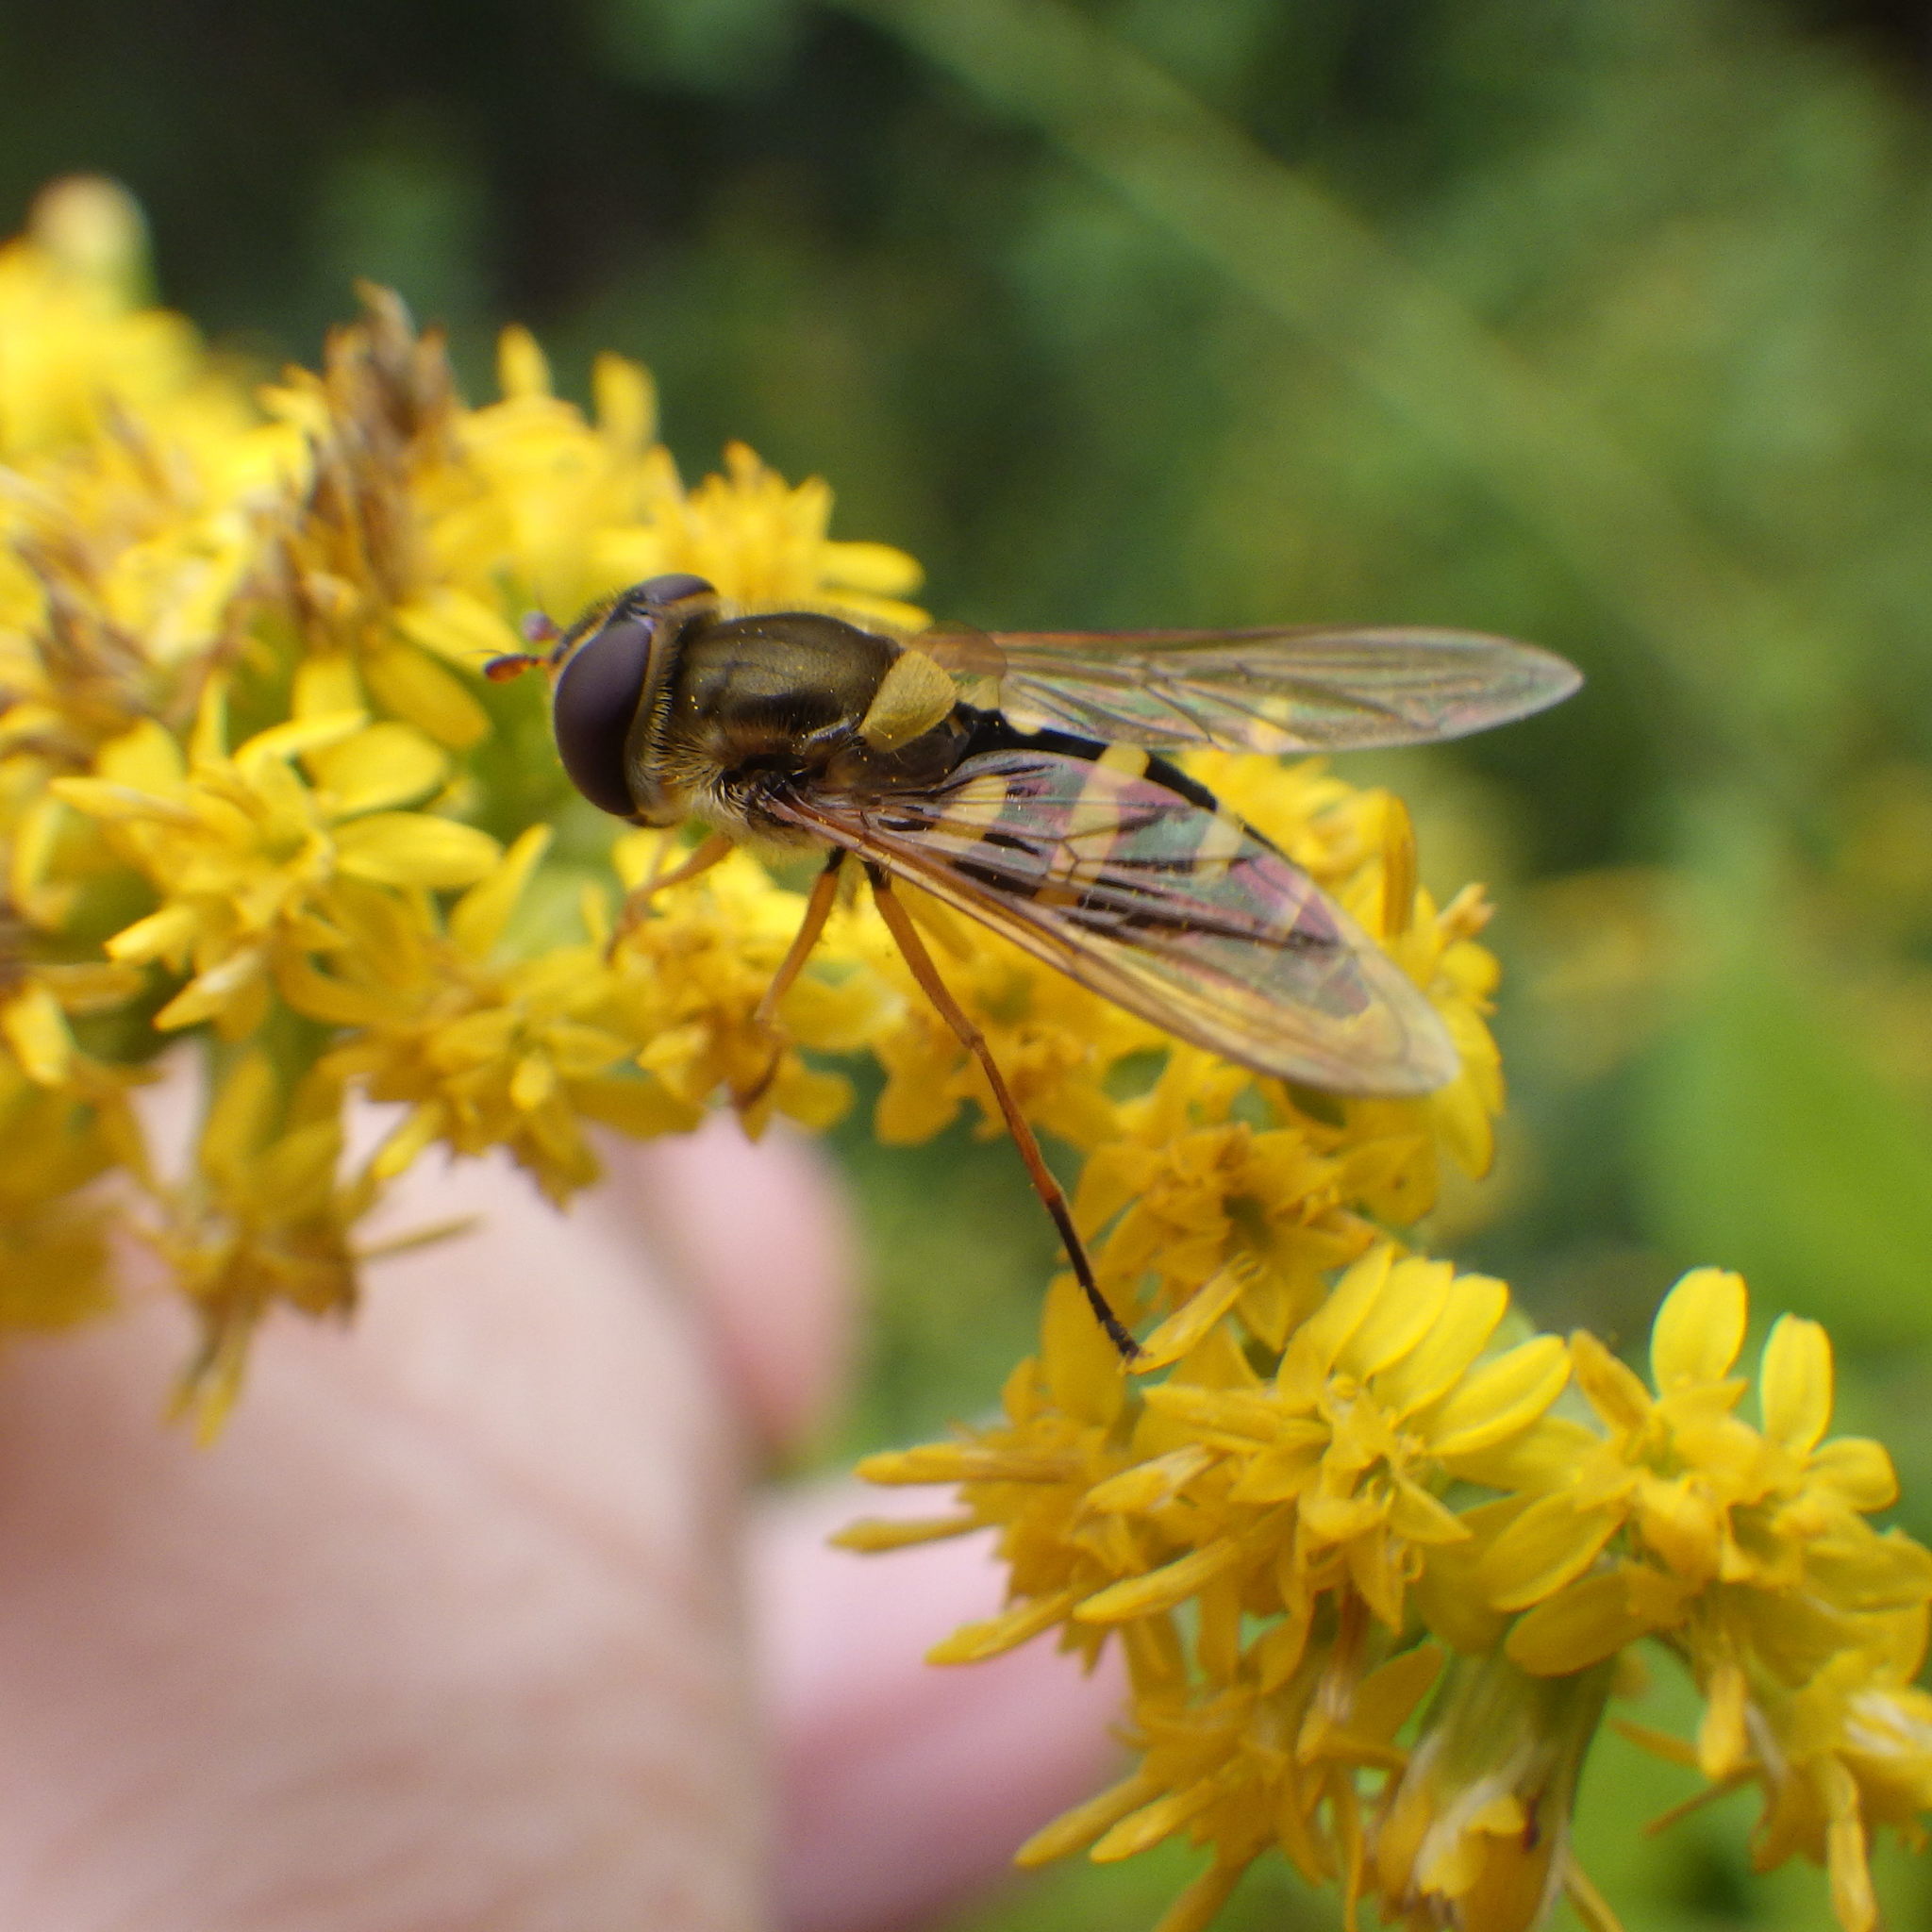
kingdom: Animalia
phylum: Arthropoda
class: Insecta
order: Diptera
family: Syrphidae
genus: Syrphus
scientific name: Syrphus ribesii
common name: Common flower fly
